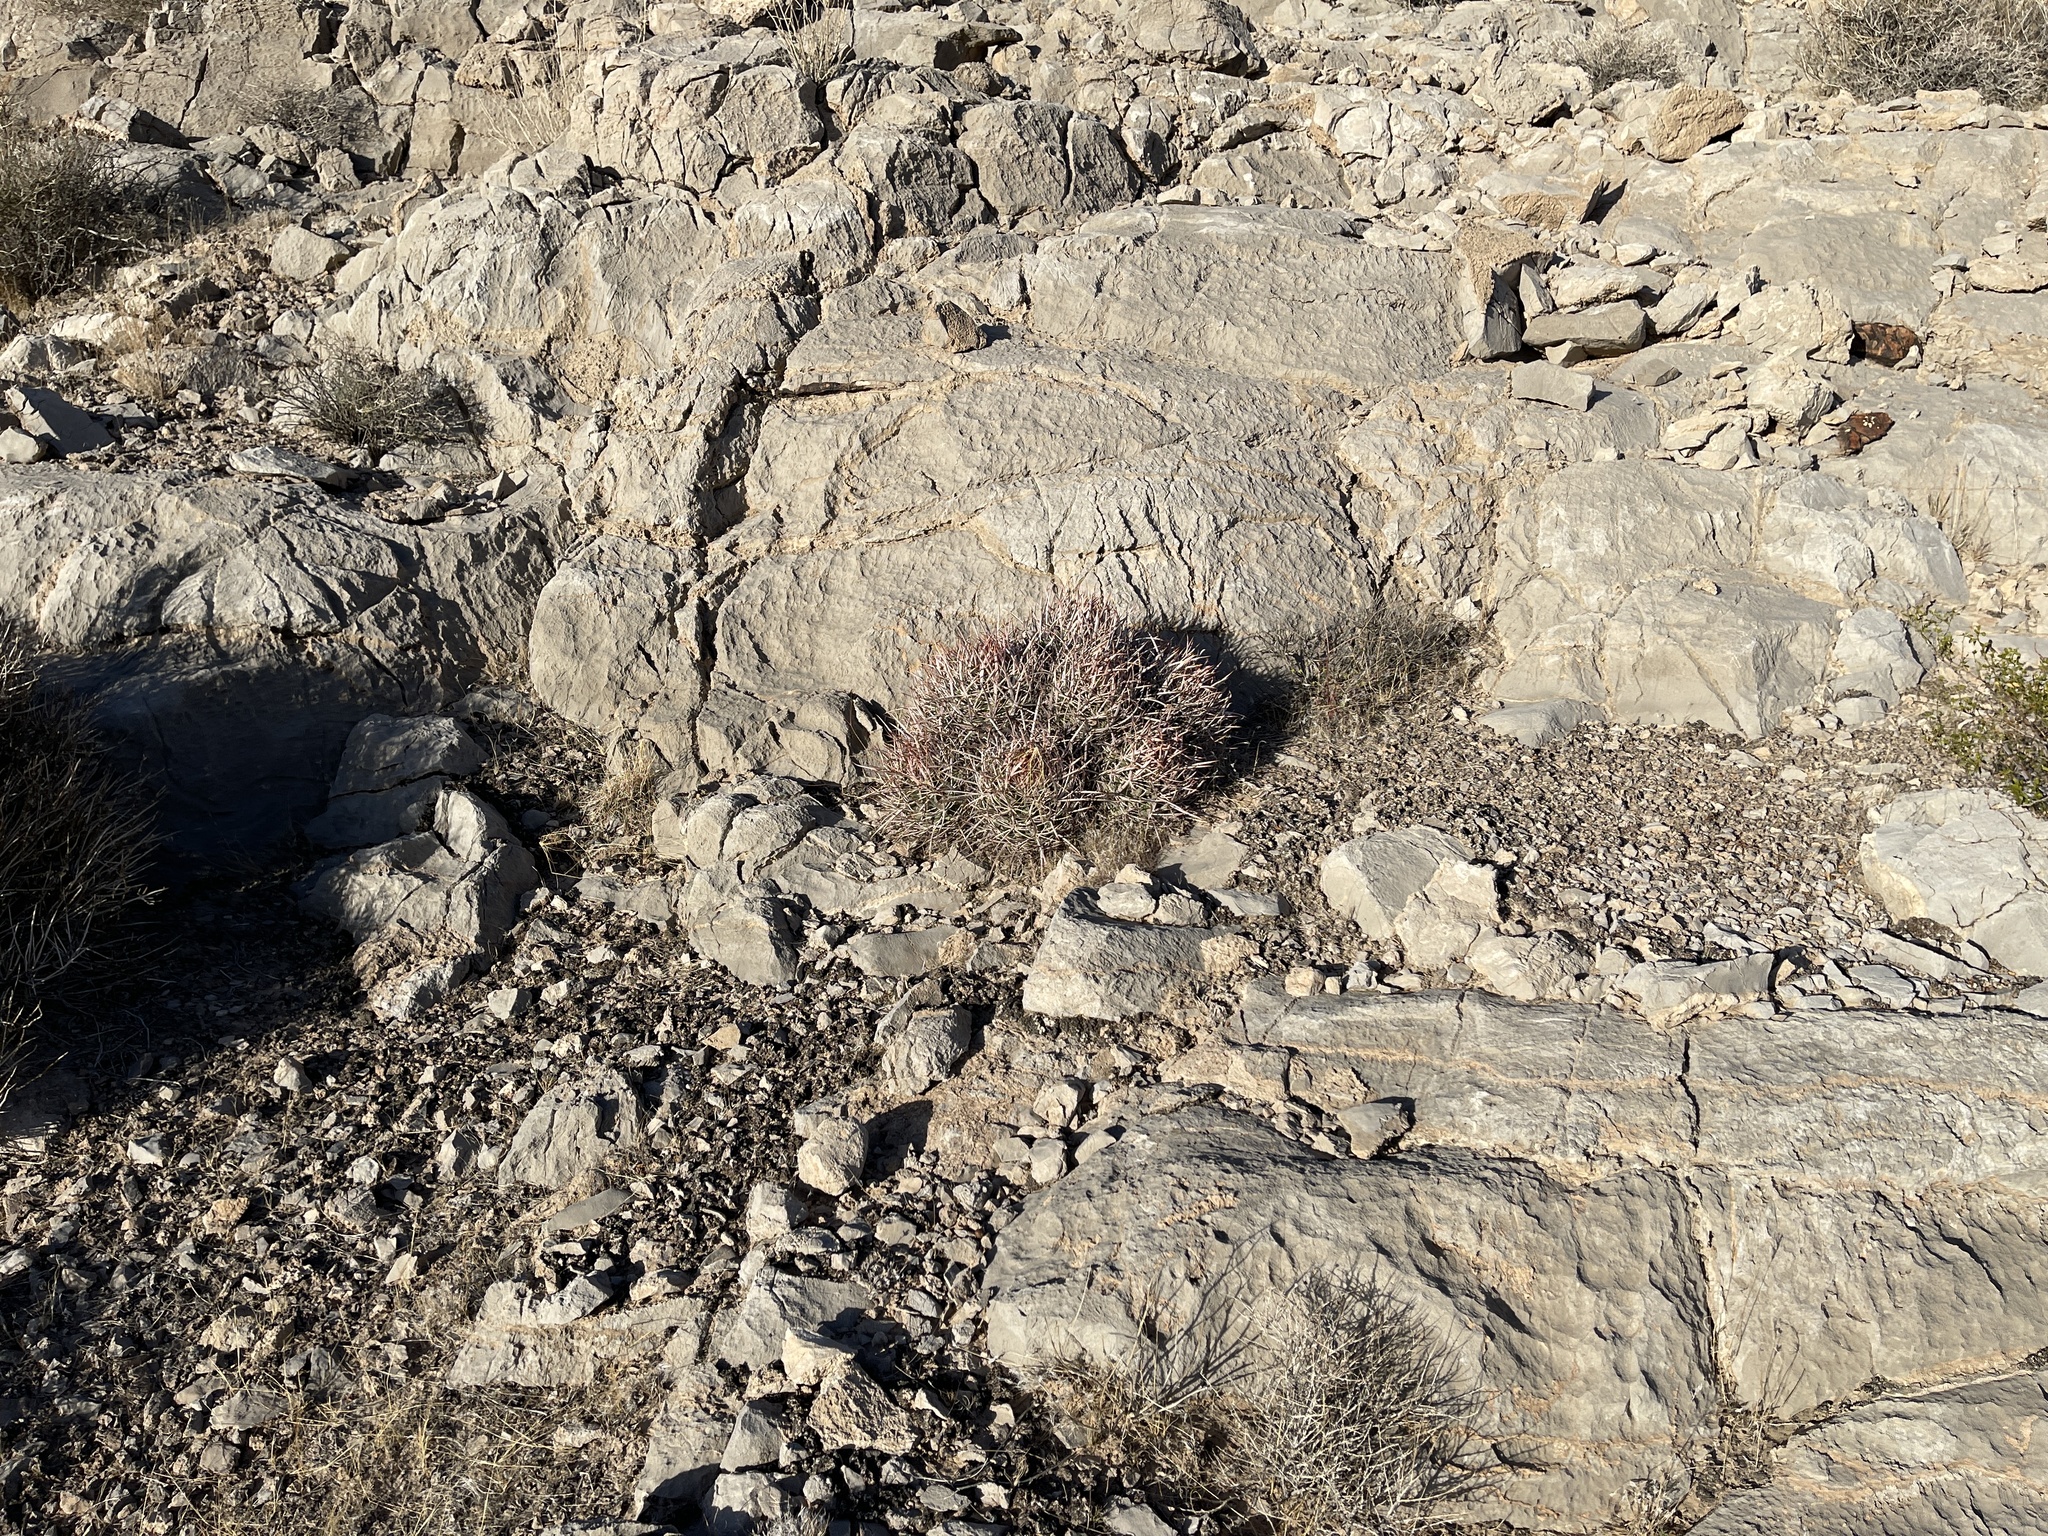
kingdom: Plantae
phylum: Tracheophyta
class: Magnoliopsida
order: Caryophyllales
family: Cactaceae
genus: Echinocactus
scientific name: Echinocactus polycephalus
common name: Cottontop cactus
